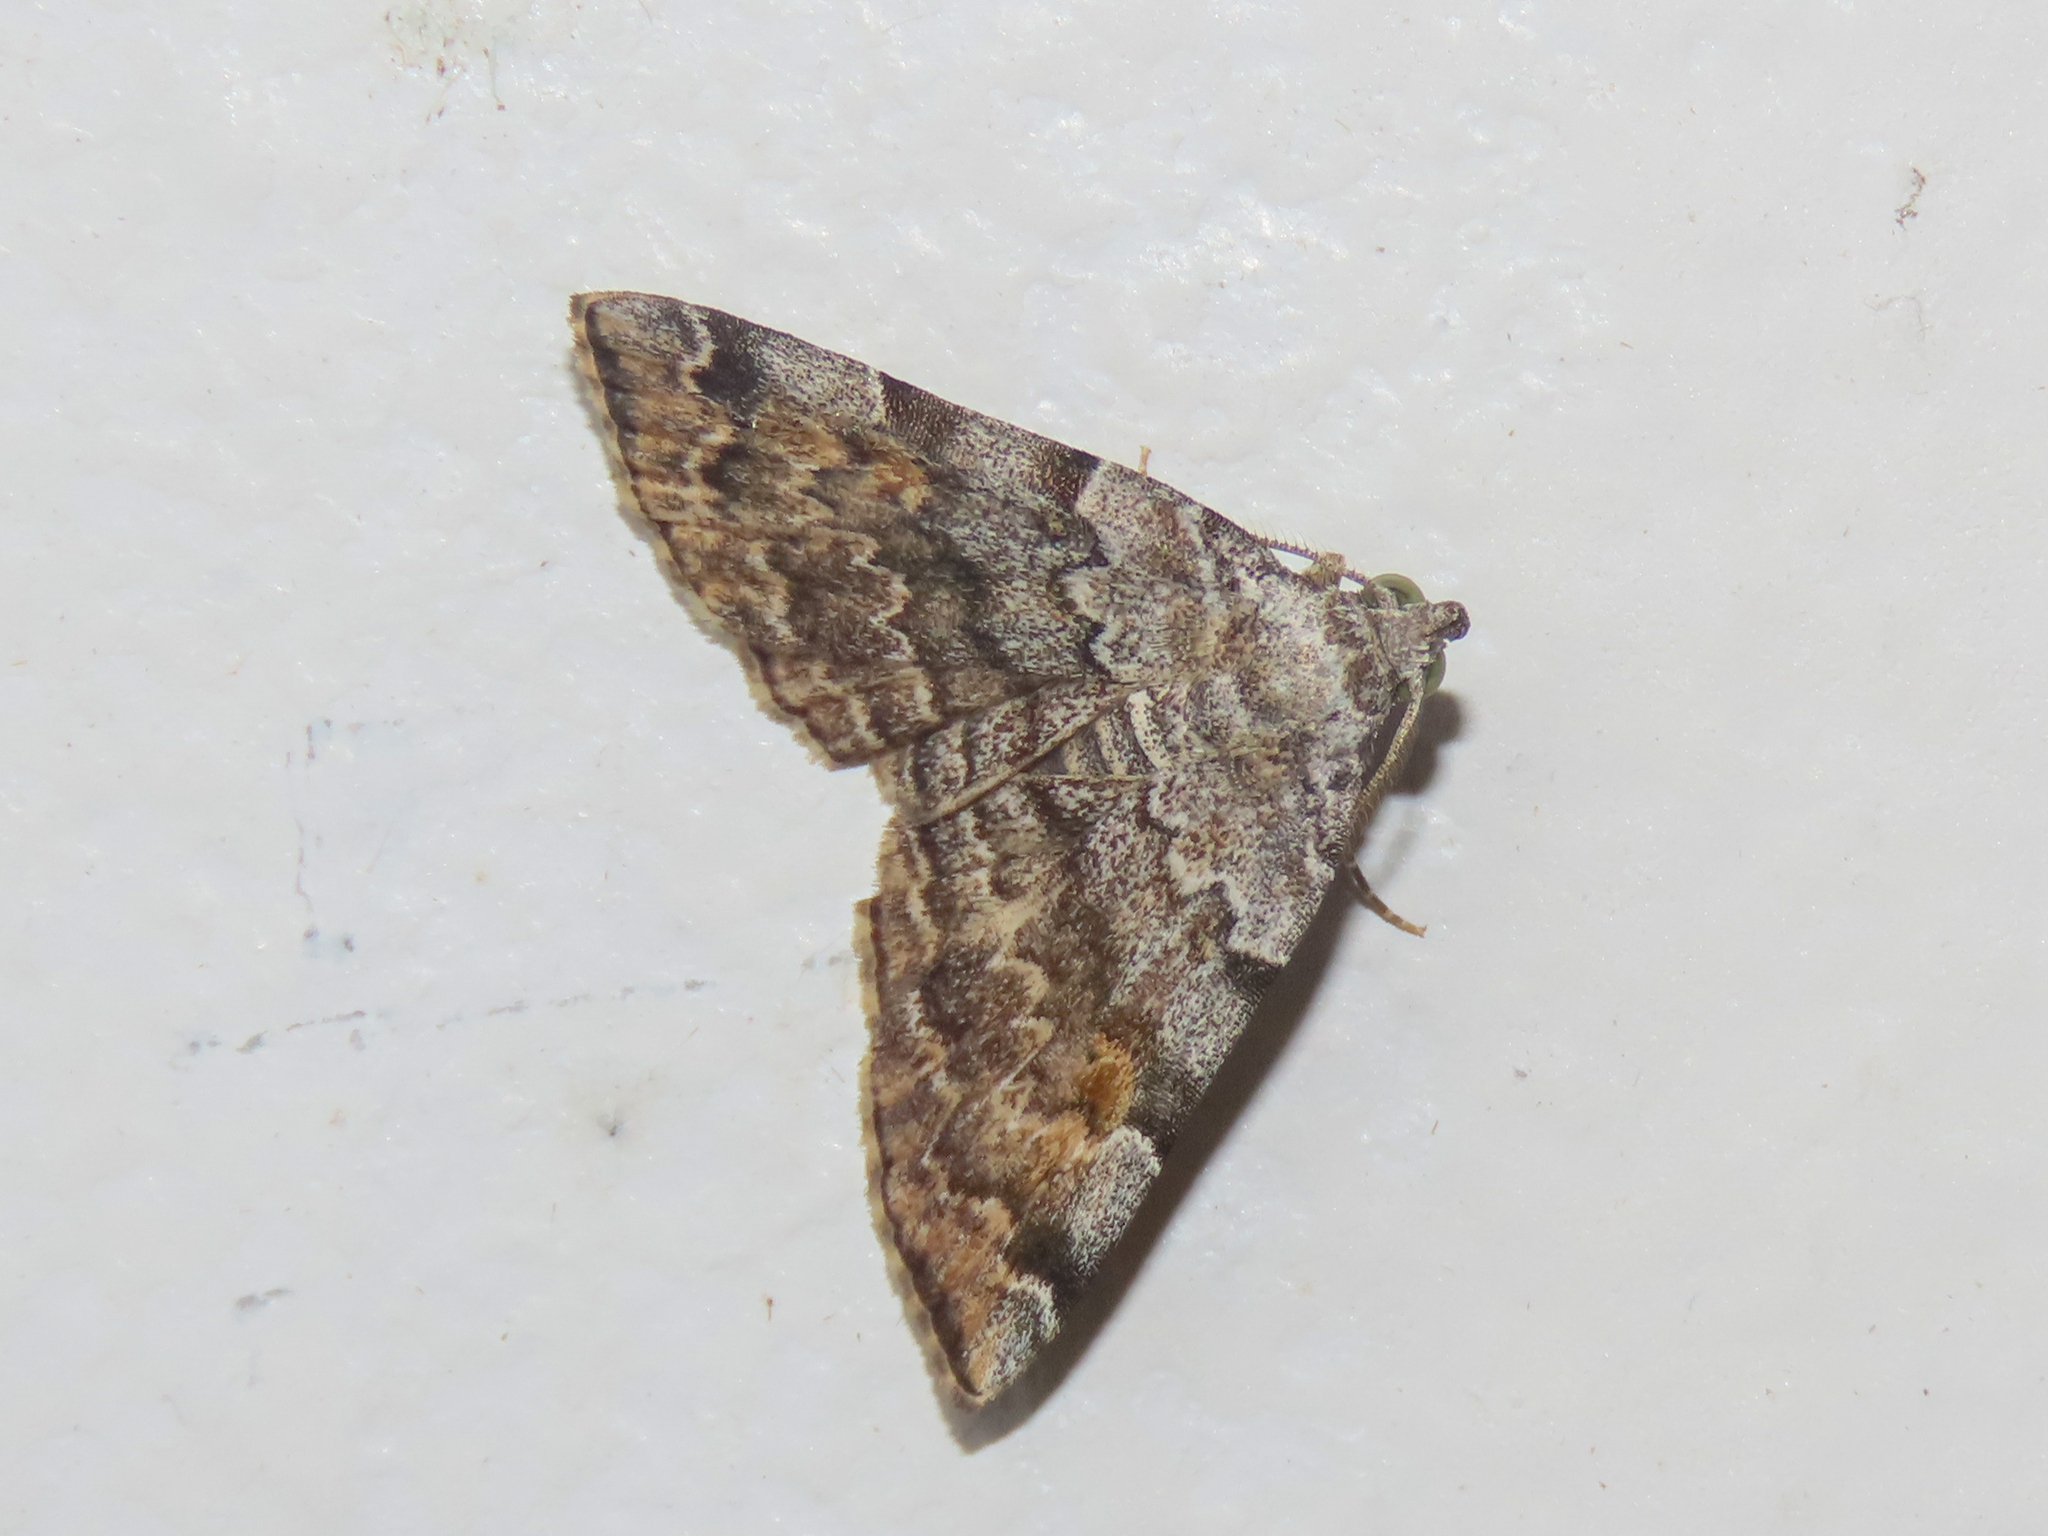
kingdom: Animalia
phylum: Arthropoda
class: Insecta
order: Lepidoptera
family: Erebidae
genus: Idia
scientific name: Idia americalis
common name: American idia moth
